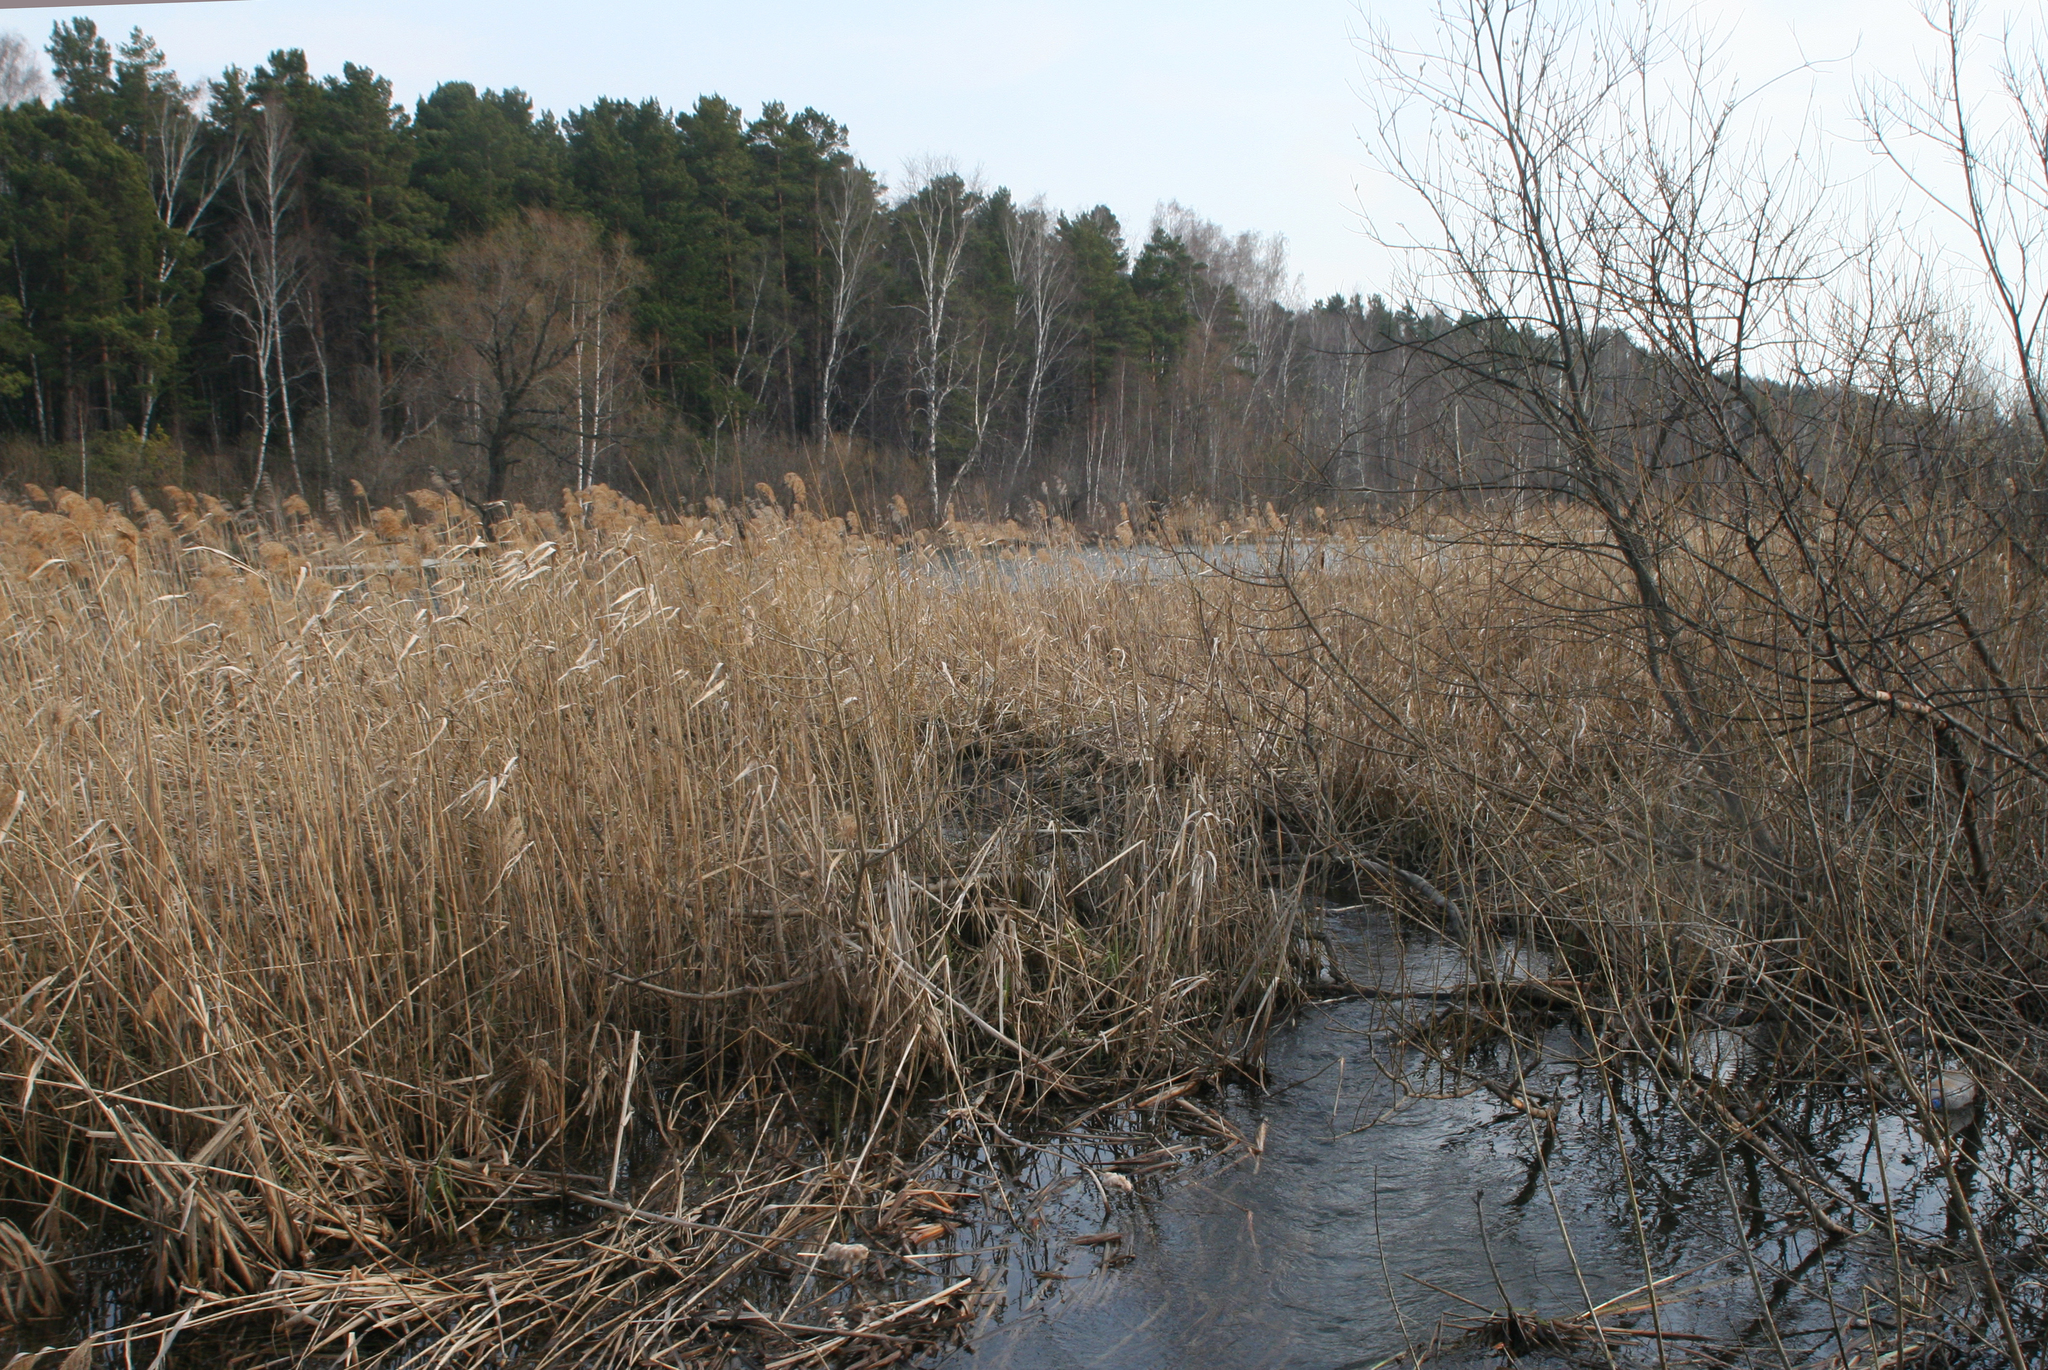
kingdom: Plantae
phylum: Tracheophyta
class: Liliopsida
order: Poales
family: Poaceae
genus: Phragmites
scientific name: Phragmites australis
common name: Common reed
